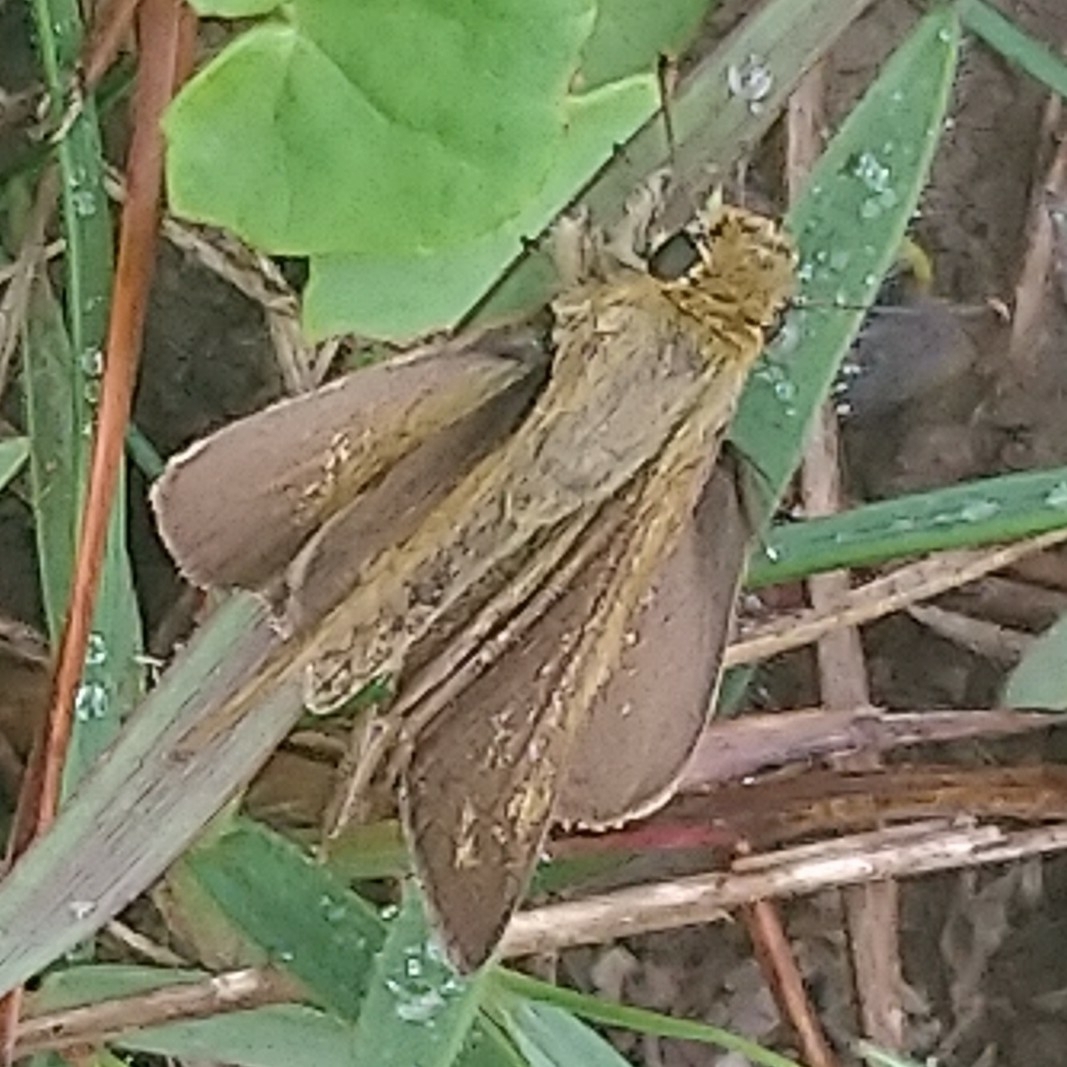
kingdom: Animalia
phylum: Arthropoda
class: Insecta
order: Hymenoptera
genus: Afrogenes
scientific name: Afrogenes
